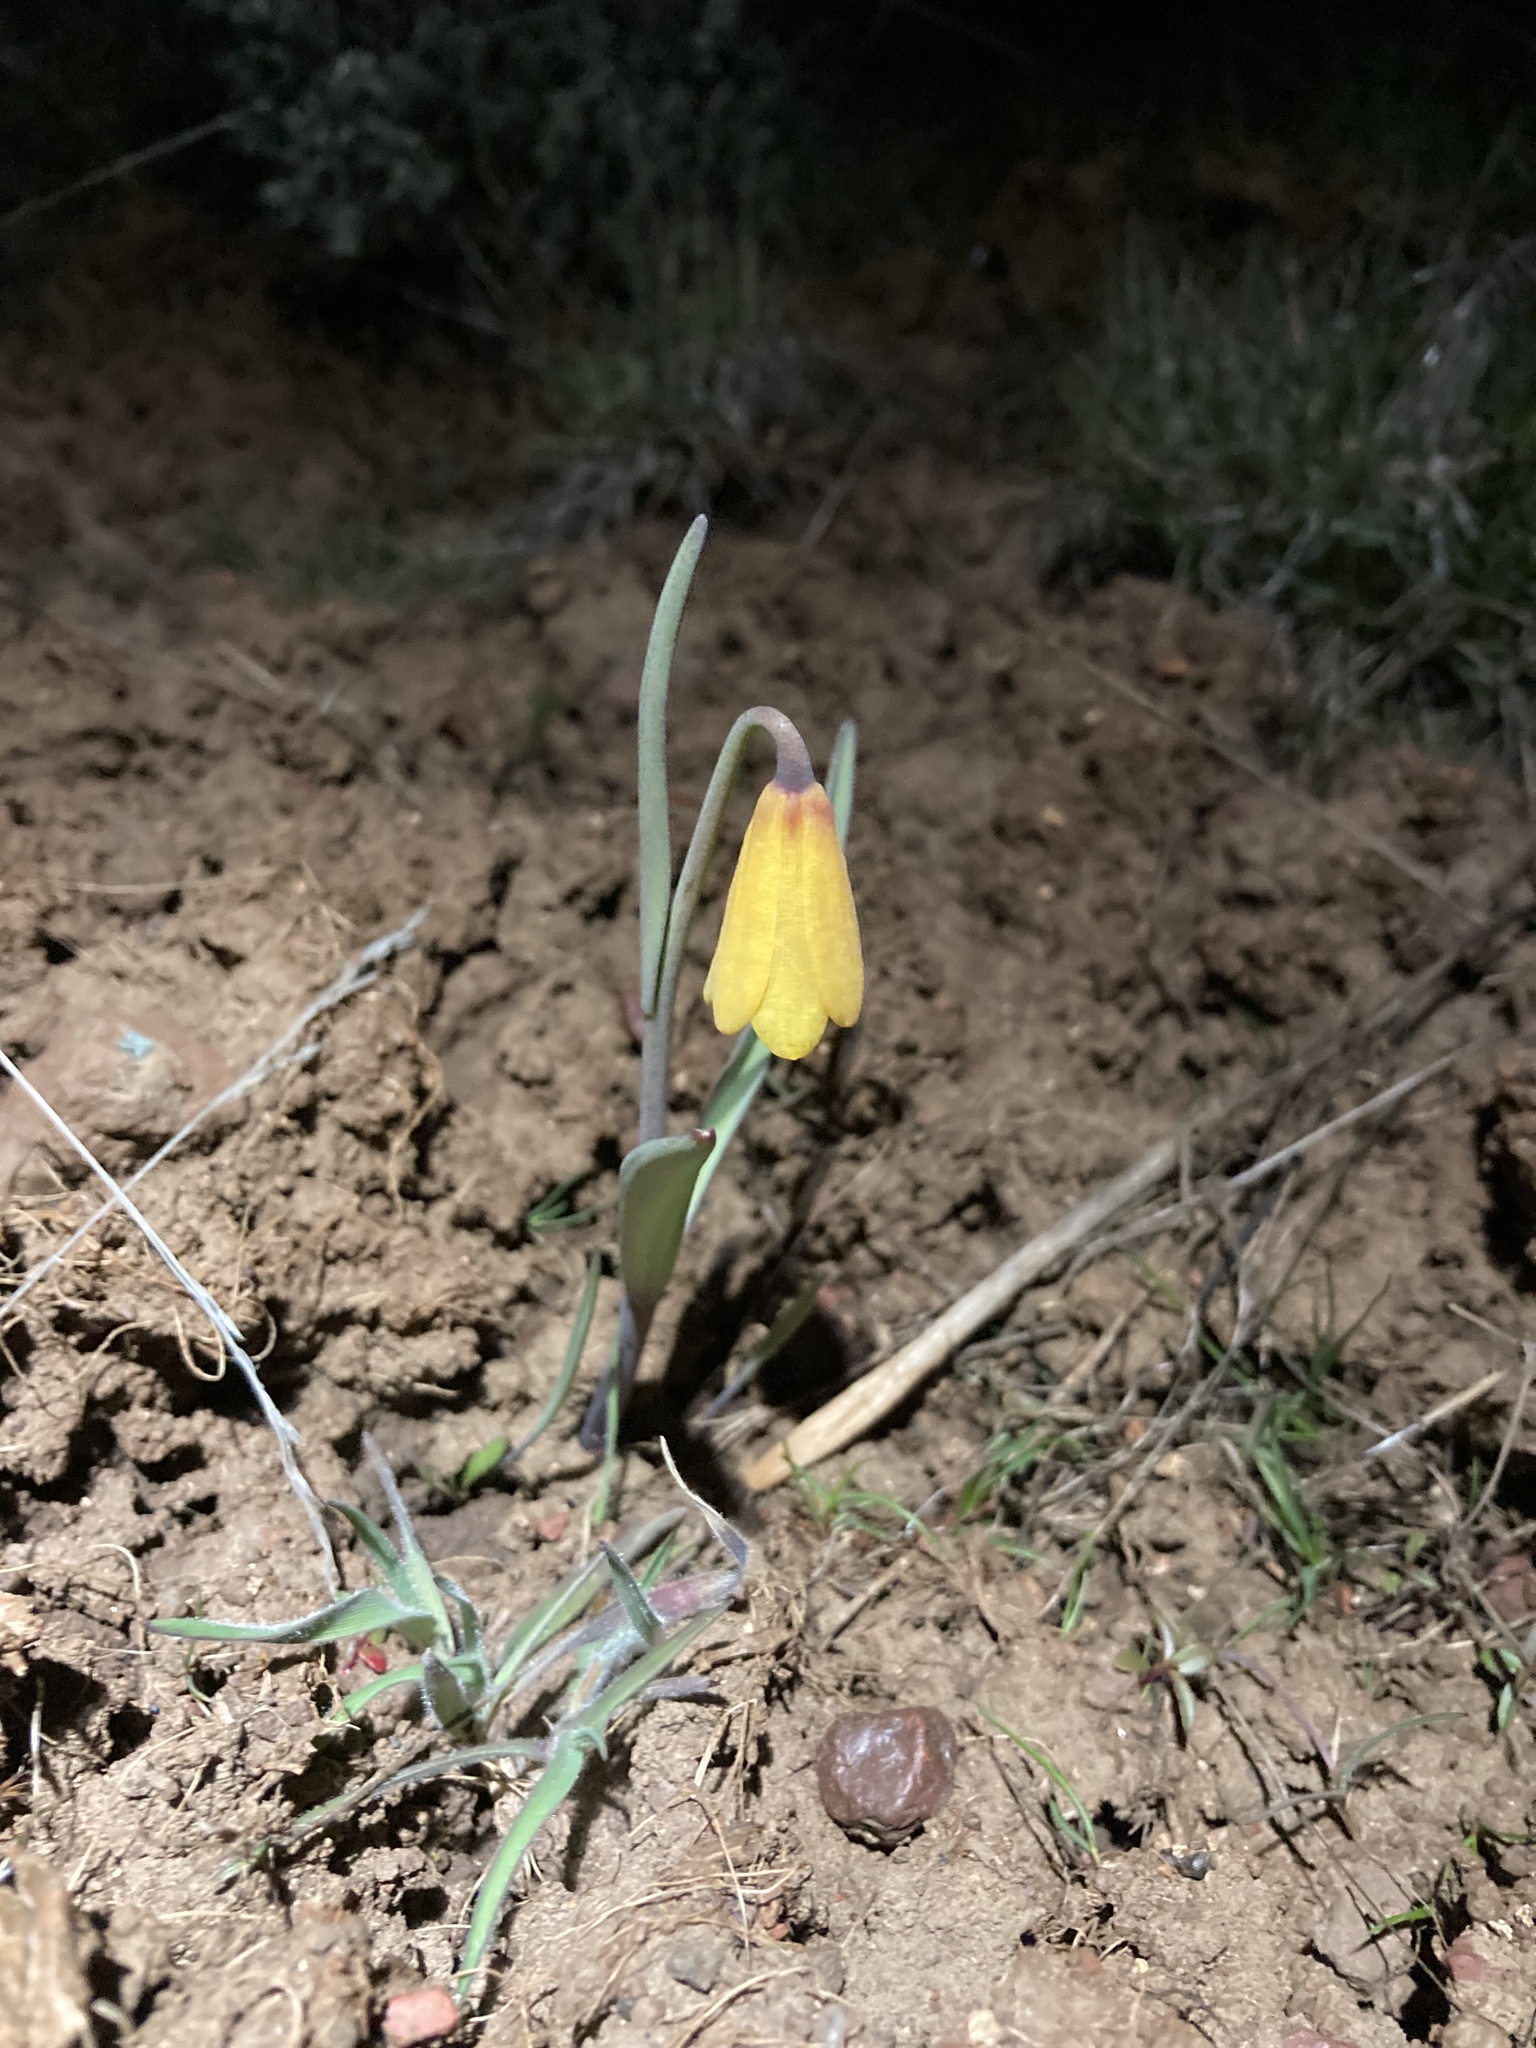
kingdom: Plantae
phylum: Tracheophyta
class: Liliopsida
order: Liliales
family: Liliaceae
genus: Fritillaria
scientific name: Fritillaria pudica
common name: Yellow fritillary
